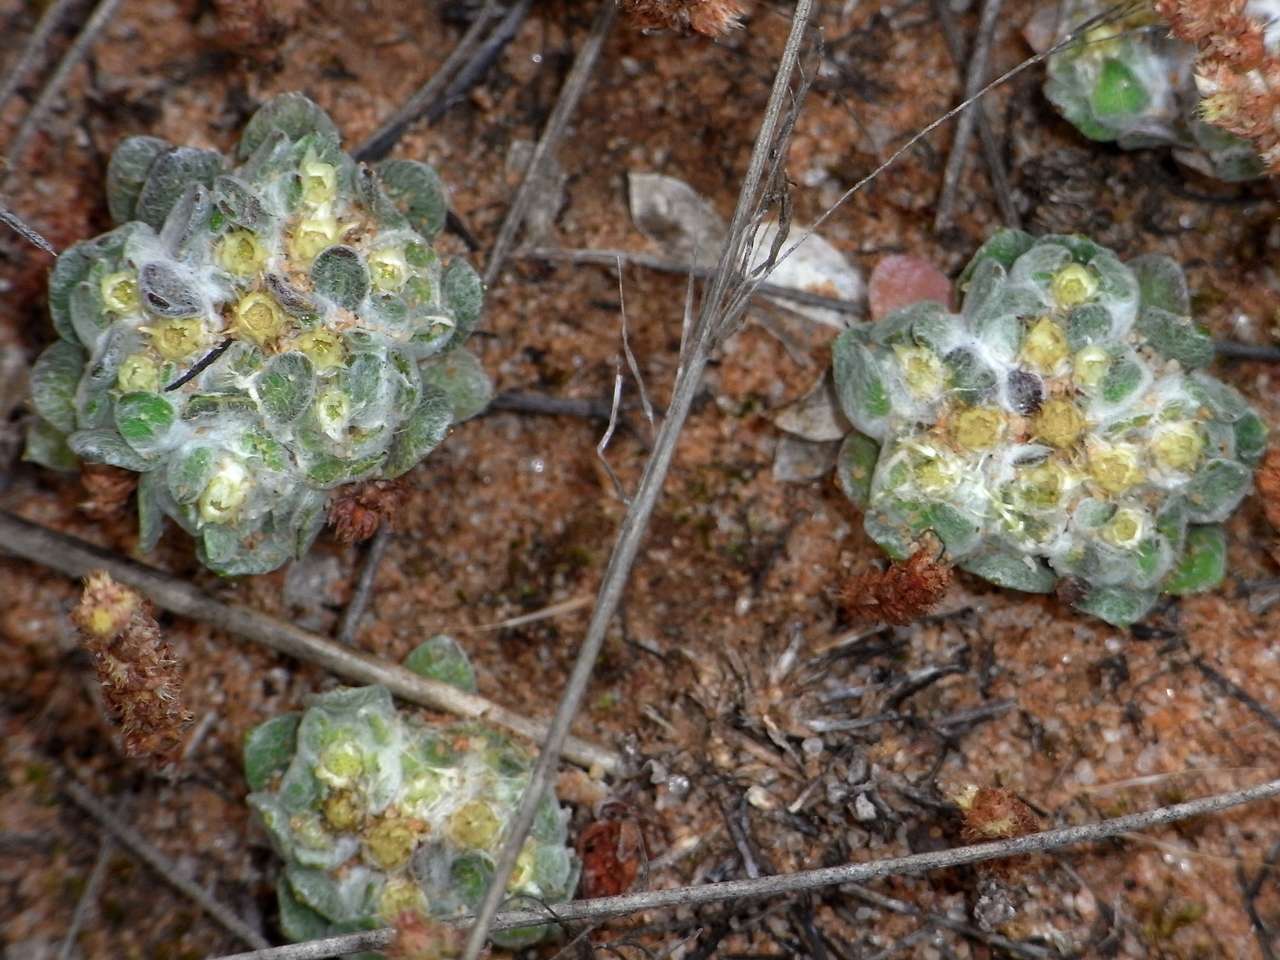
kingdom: Plantae
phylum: Tracheophyta
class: Magnoliopsida
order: Asterales
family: Asteraceae
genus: Actinobole
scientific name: Actinobole uliginosum
